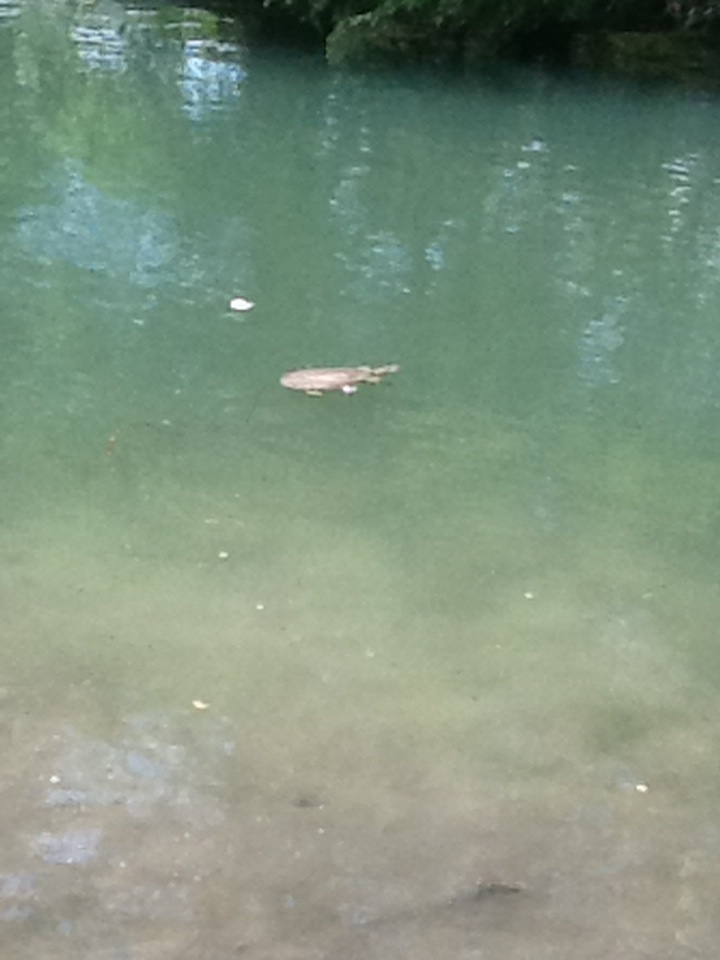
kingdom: Animalia
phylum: Chordata
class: Testudines
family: Trionychidae
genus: Apalone
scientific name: Apalone spinifera
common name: Spiny softshell turtle
